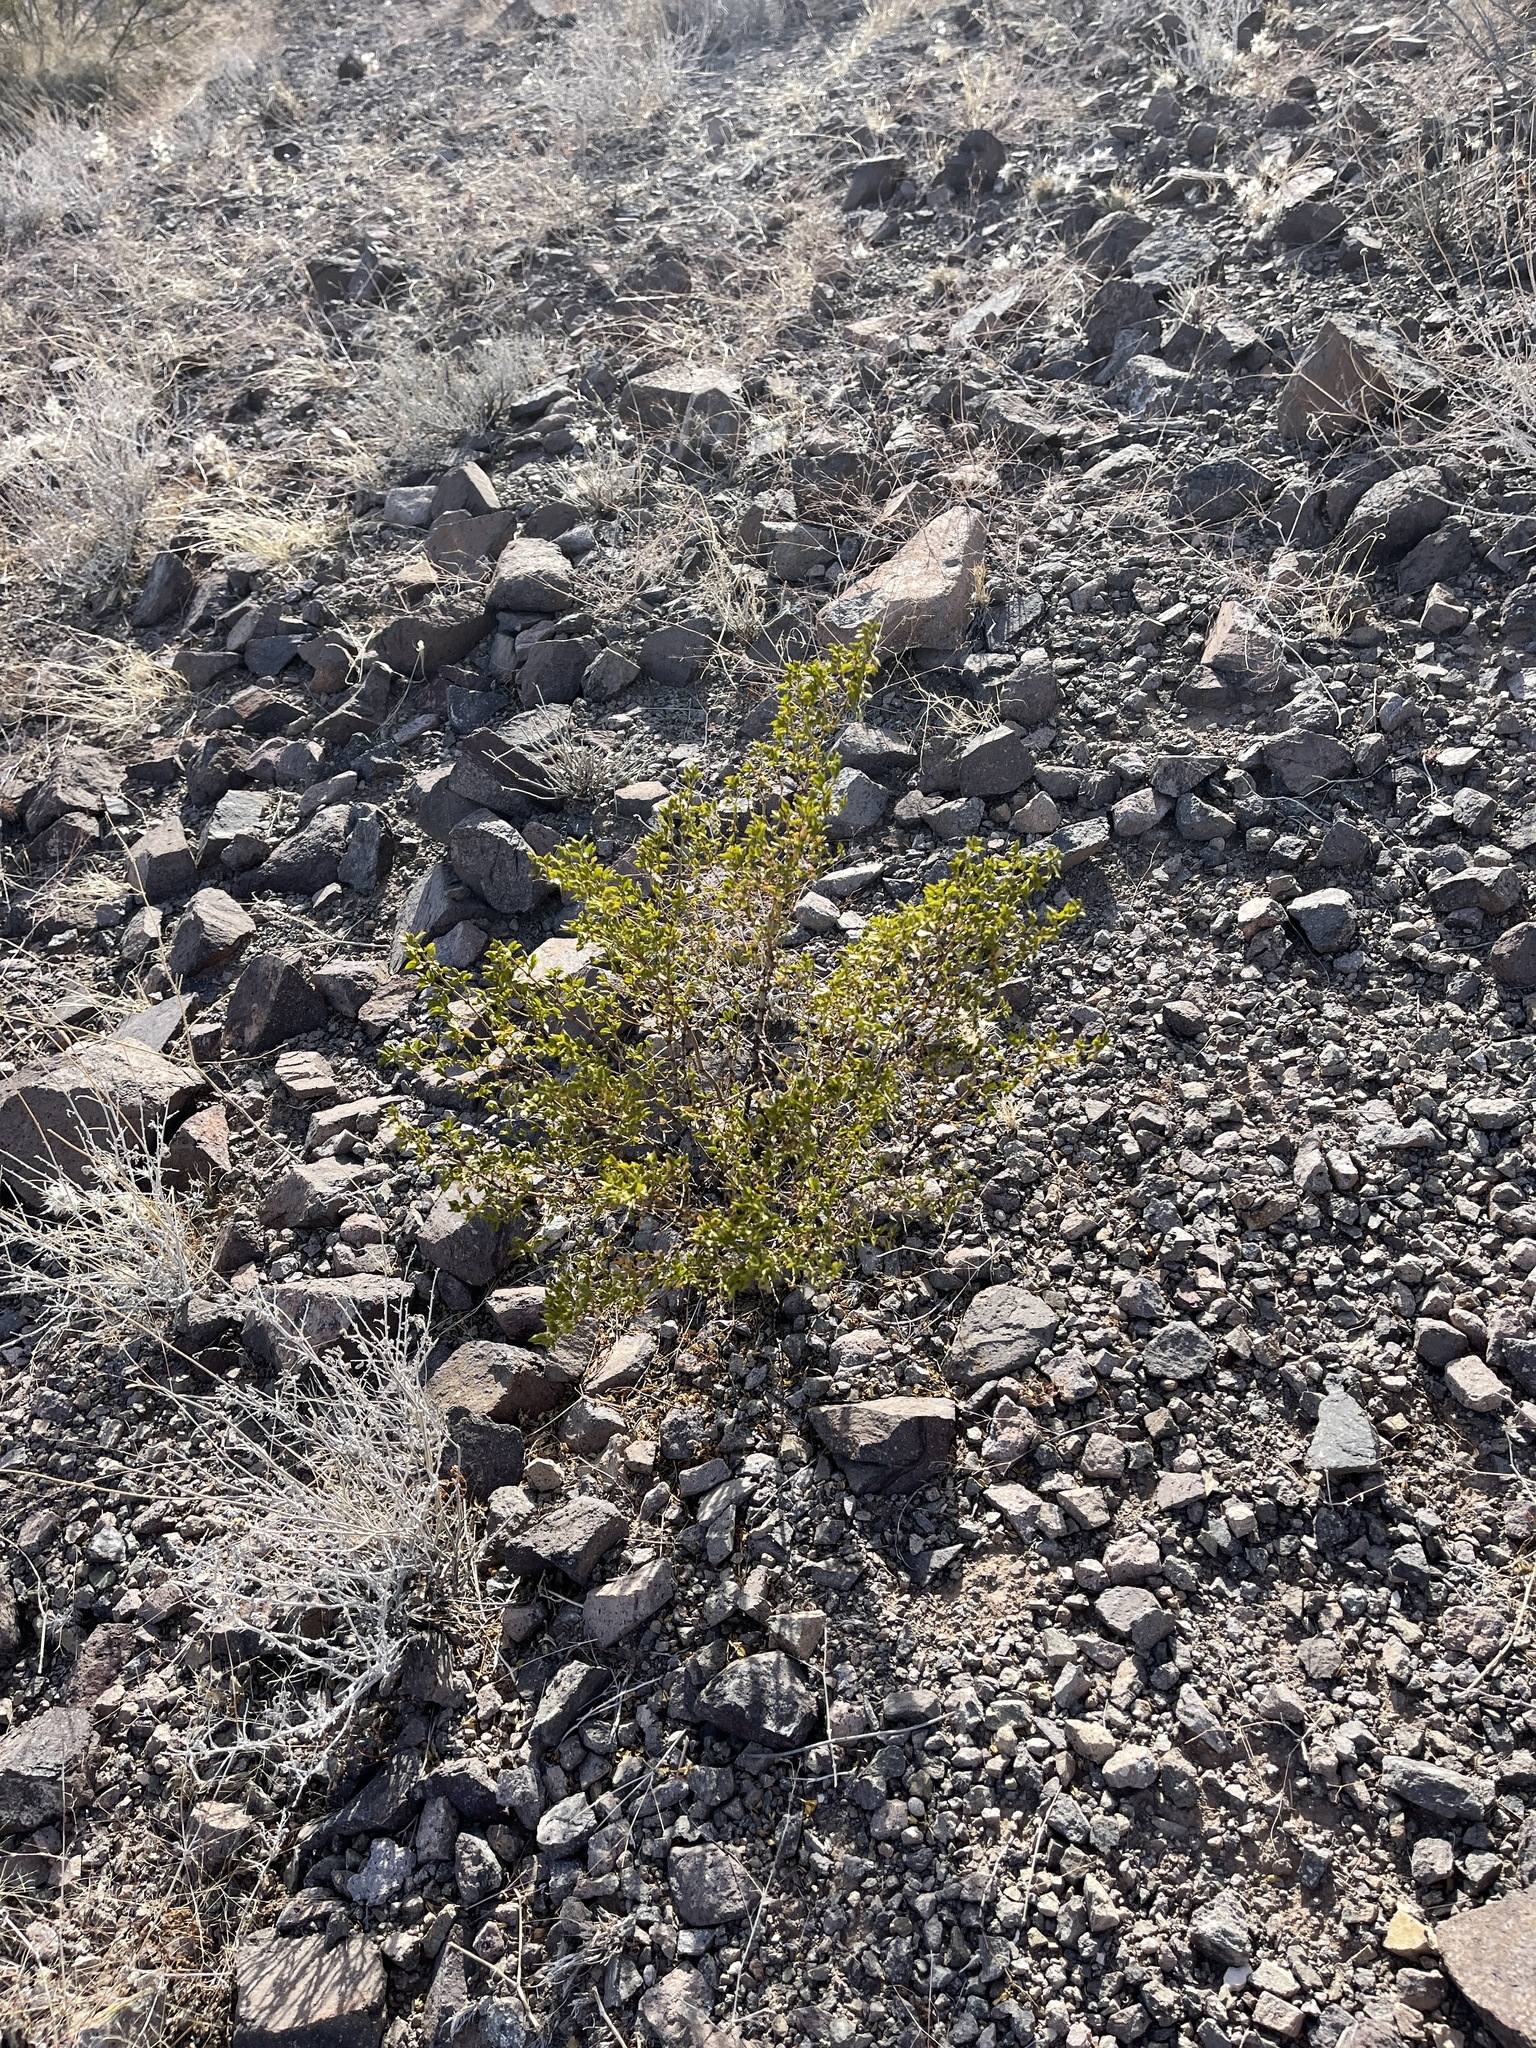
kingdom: Plantae
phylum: Tracheophyta
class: Magnoliopsida
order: Zygophyllales
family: Zygophyllaceae
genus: Larrea
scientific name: Larrea tridentata
